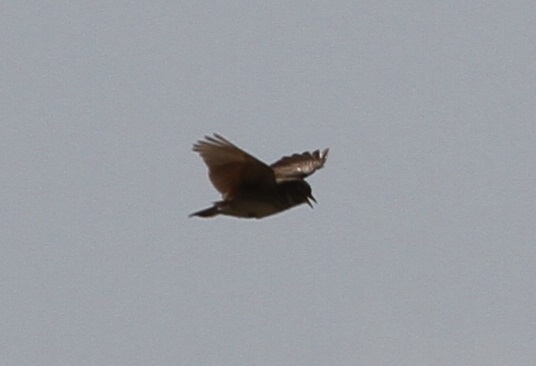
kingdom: Animalia
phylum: Chordata
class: Aves
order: Passeriformes
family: Alaudidae
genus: Alauda
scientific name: Alauda arvensis
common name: Eurasian skylark
